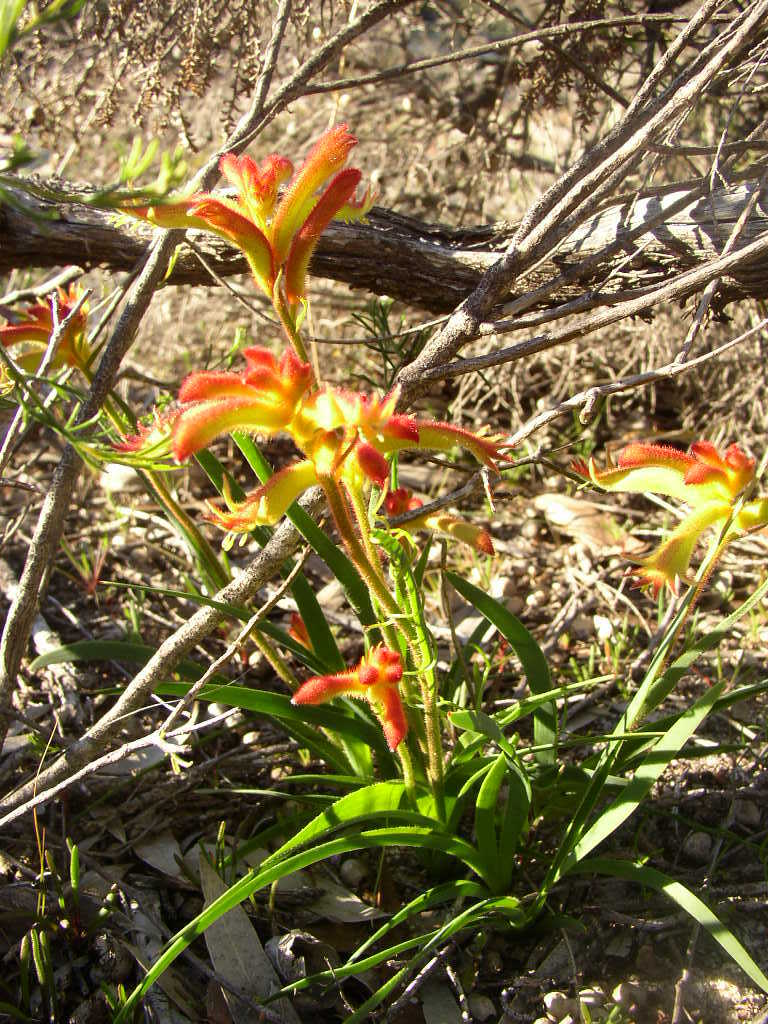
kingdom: Plantae
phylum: Tracheophyta
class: Liliopsida
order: Commelinales
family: Haemodoraceae
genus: Anigozanthos
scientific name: Anigozanthos humilis
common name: Cat's-paw
